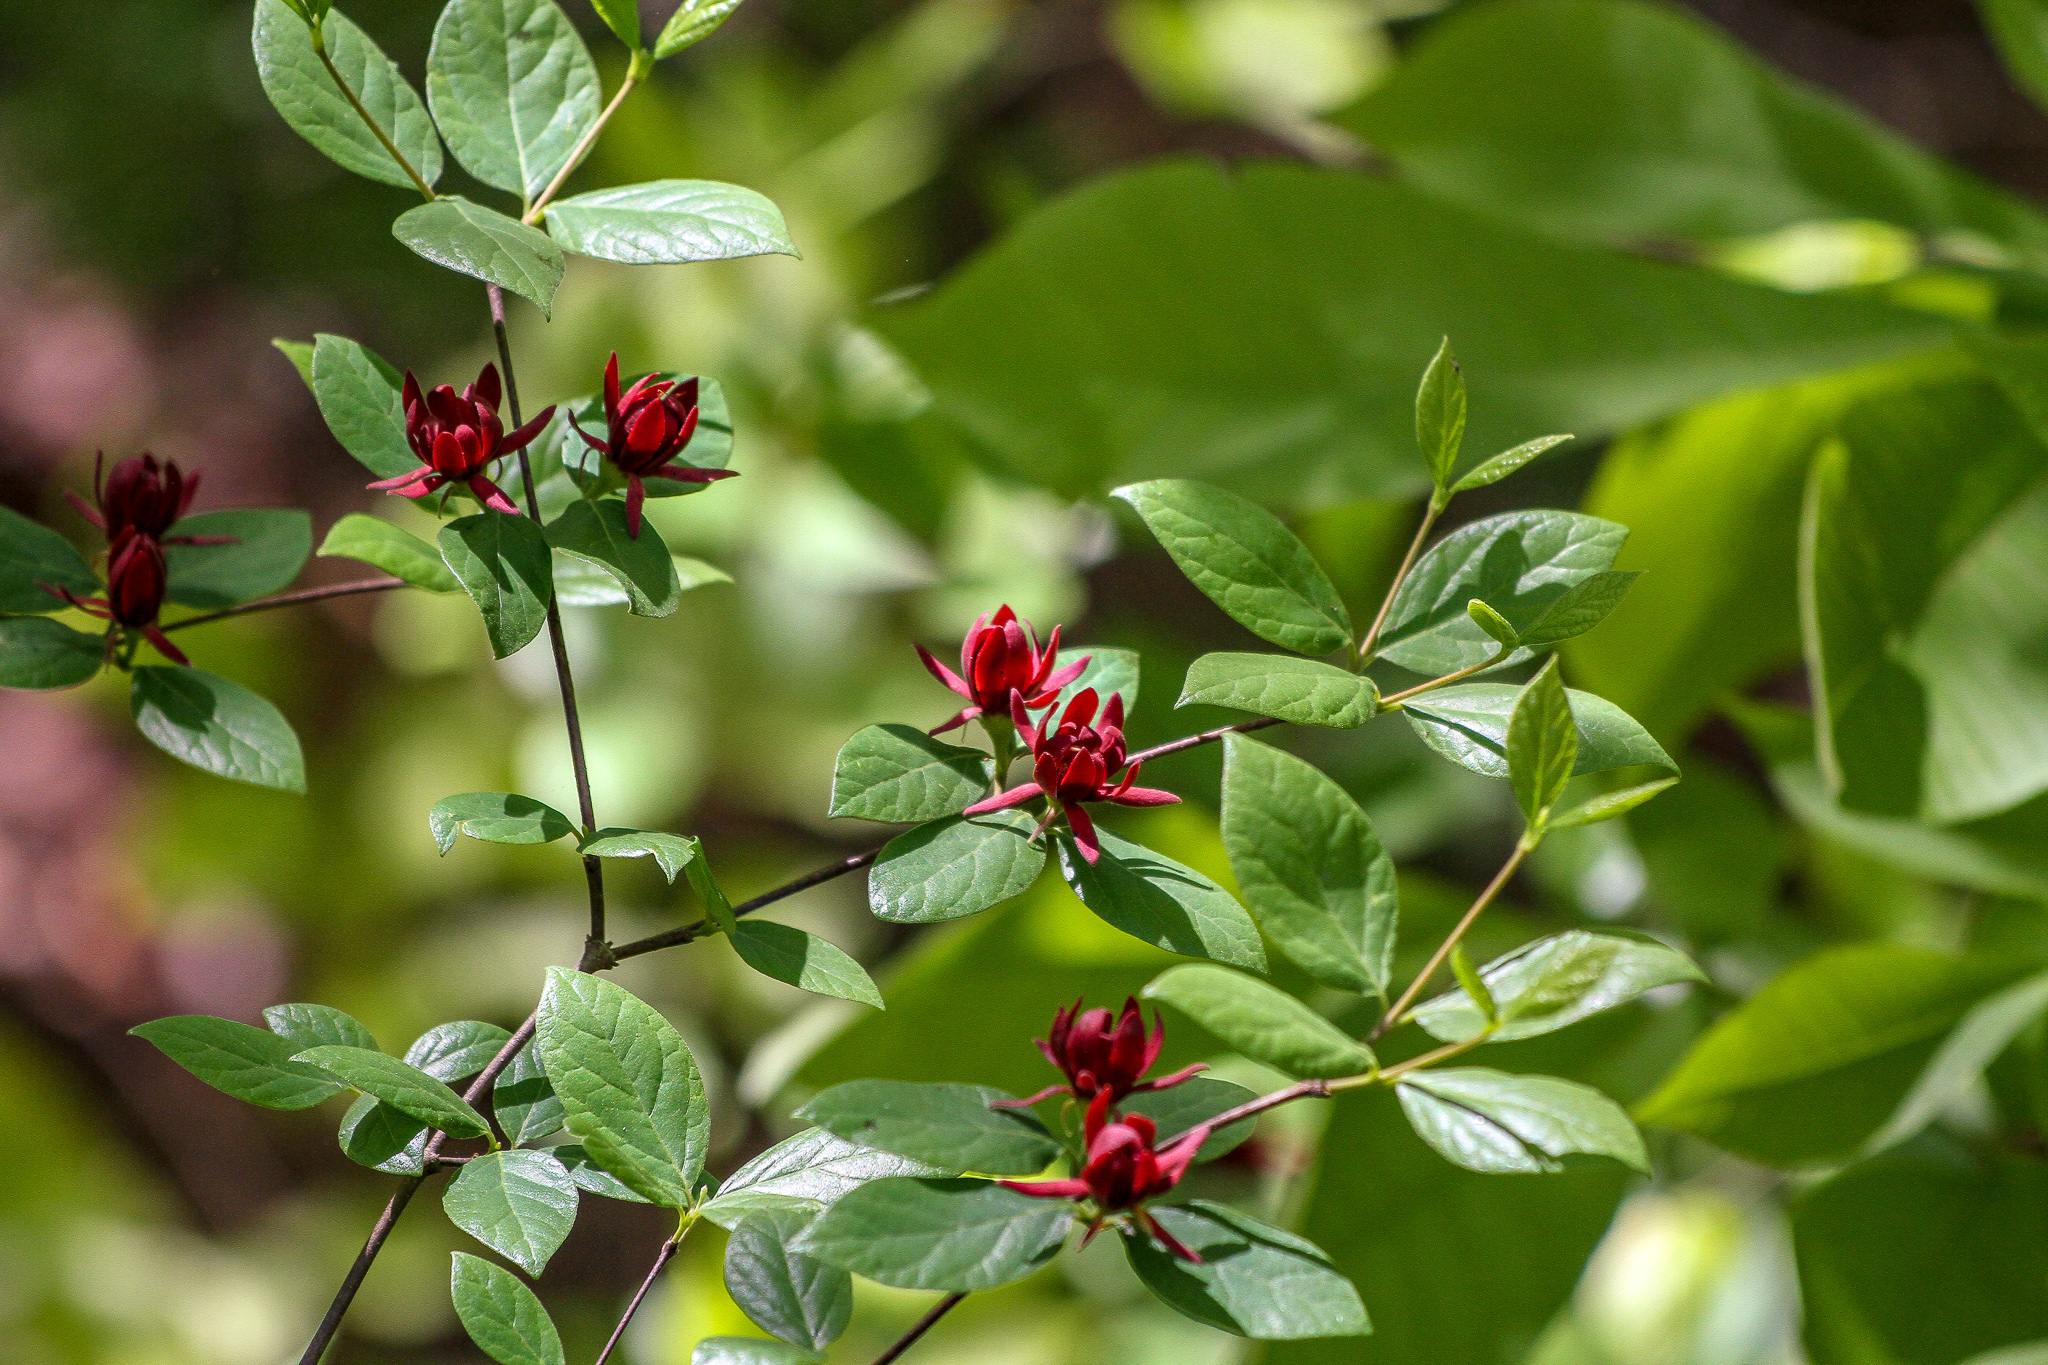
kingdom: Plantae
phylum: Tracheophyta
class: Magnoliopsida
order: Laurales
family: Calycanthaceae
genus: Calycanthus
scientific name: Calycanthus floridus
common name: Carolina-allspice
